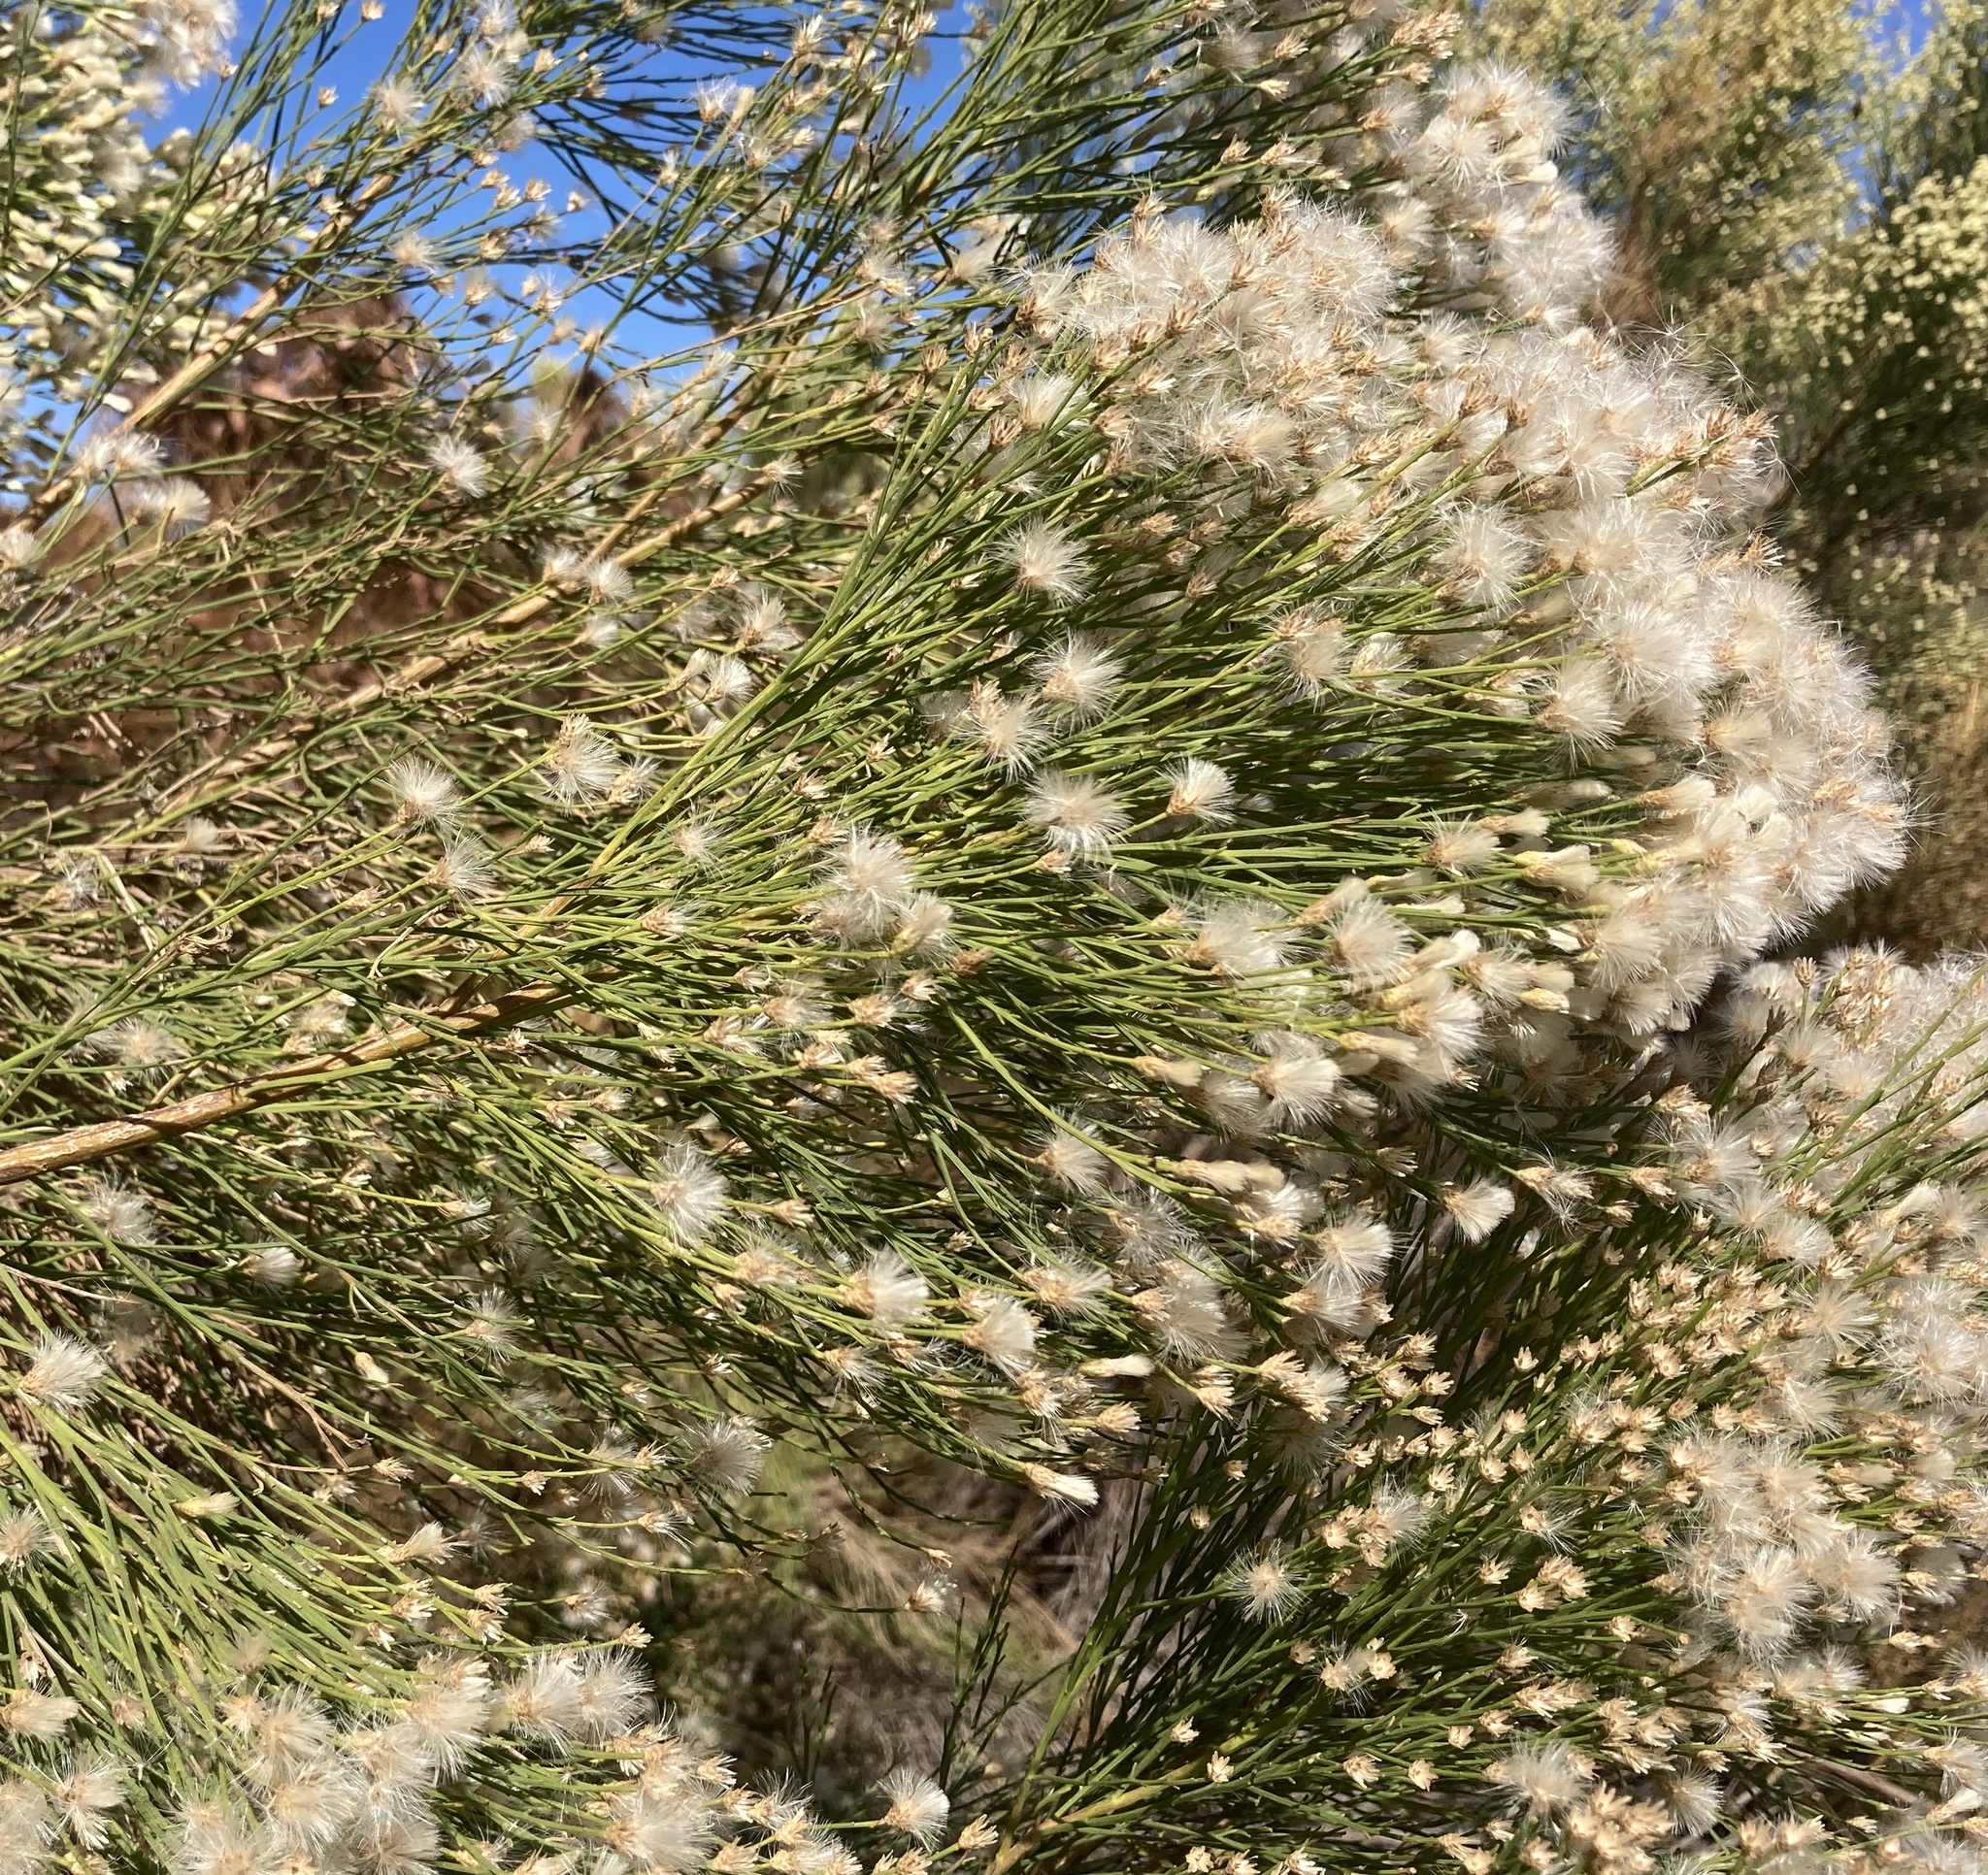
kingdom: Plantae
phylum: Tracheophyta
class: Magnoliopsida
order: Asterales
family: Asteraceae
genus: Baccharis
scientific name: Baccharis sarothroides
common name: Desert-broom
